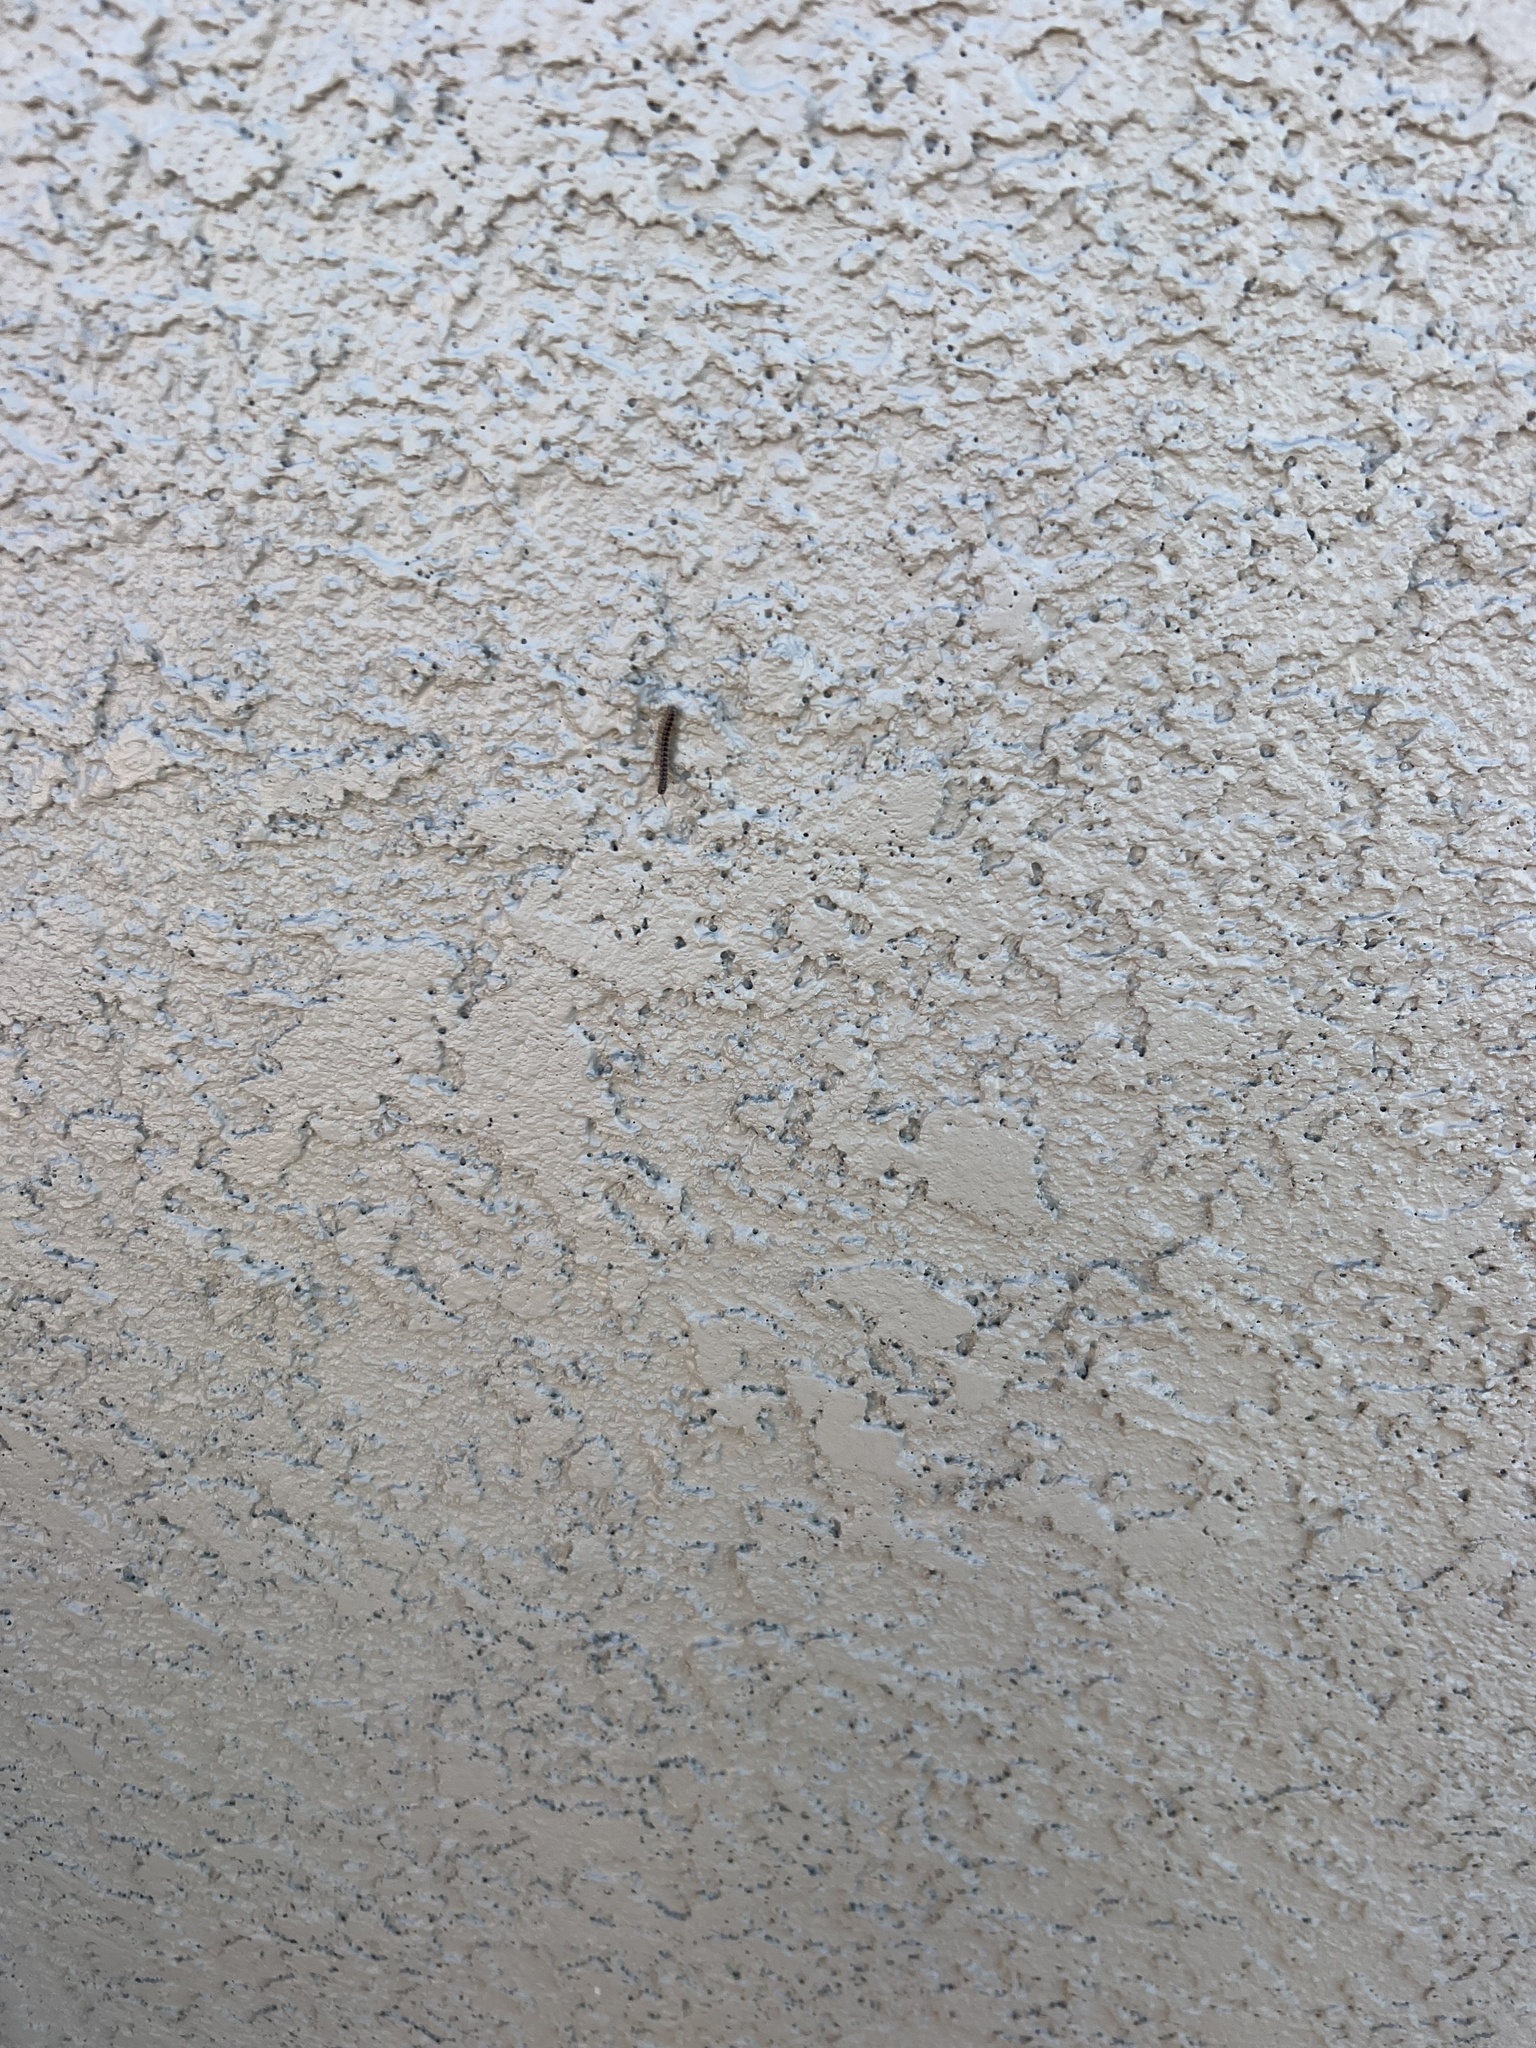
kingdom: Animalia
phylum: Arthropoda
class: Diplopoda
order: Polydesmida
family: Paradoxosomatidae
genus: Oxidus
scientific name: Oxidus gracilis
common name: Greenhouse millipede
